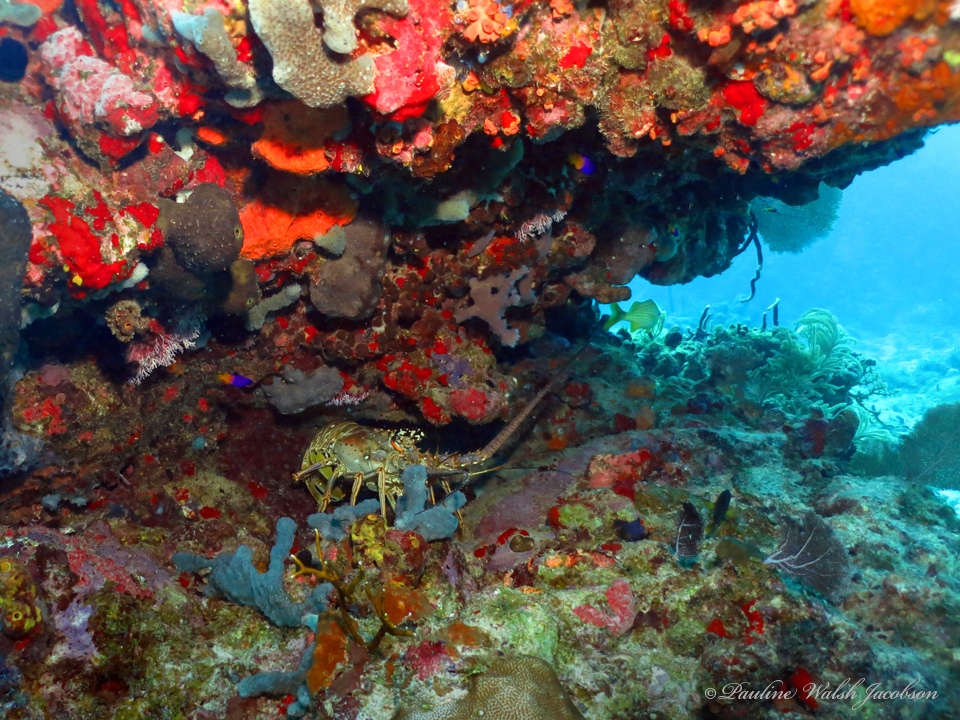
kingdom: Animalia
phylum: Arthropoda
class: Malacostraca
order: Decapoda
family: Palinuridae
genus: Panulirus
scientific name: Panulirus argus
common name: Caribbean spiny lobster
